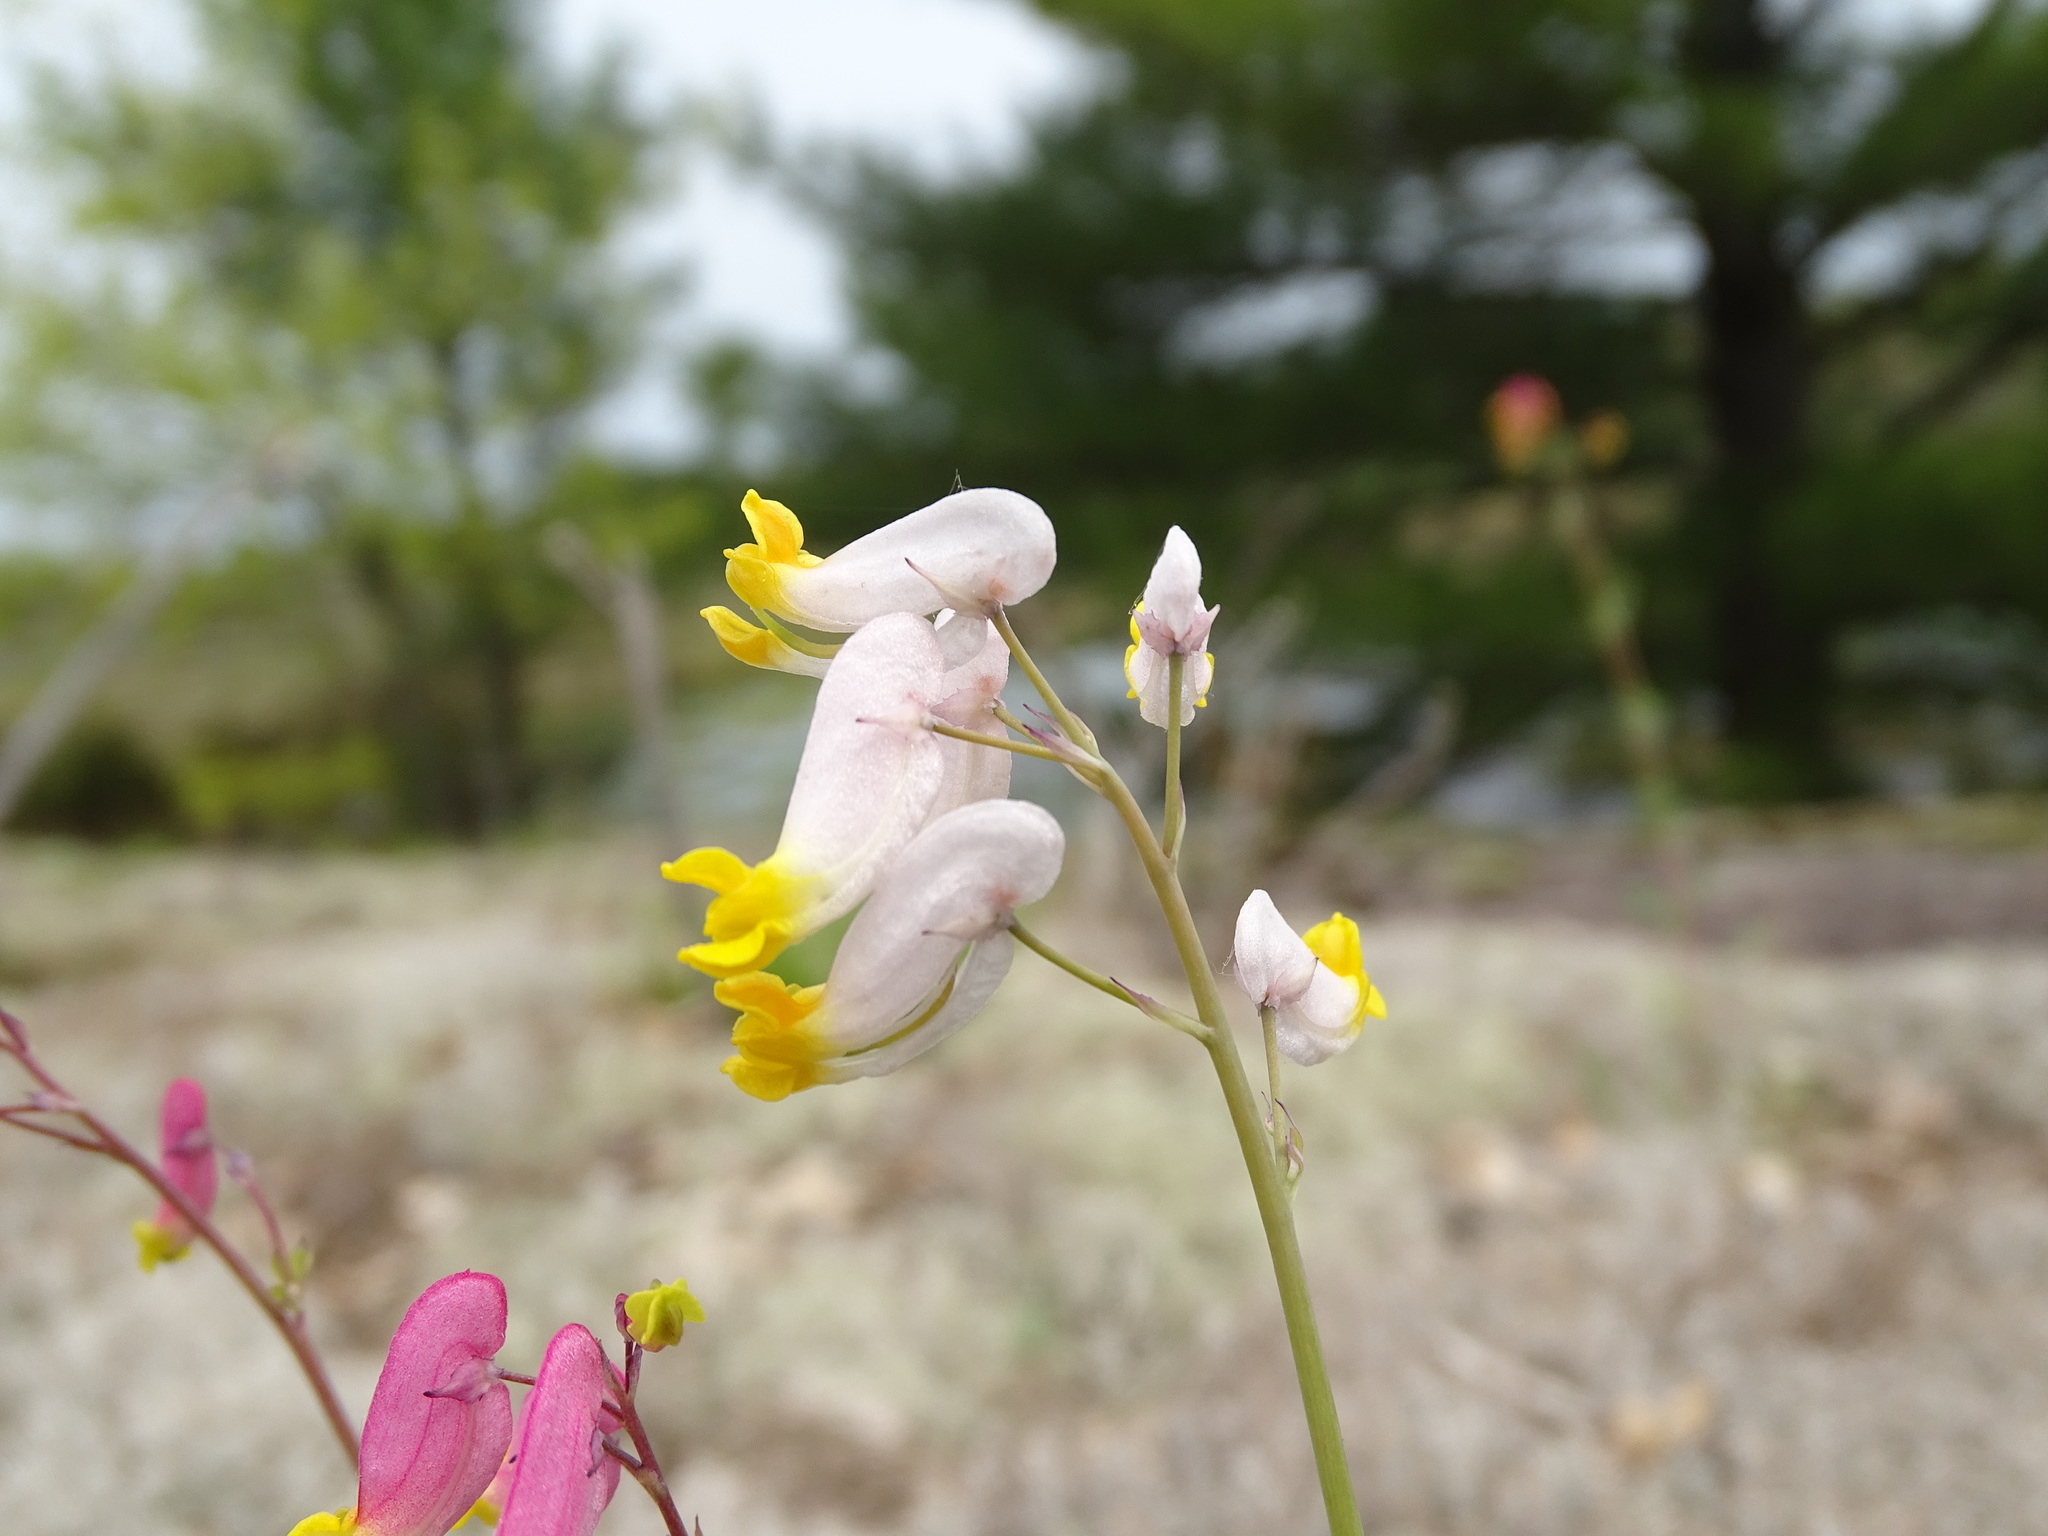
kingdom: Plantae
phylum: Tracheophyta
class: Magnoliopsida
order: Ranunculales
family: Papaveraceae
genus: Capnoides
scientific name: Capnoides sempervirens
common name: Rock harlequin
